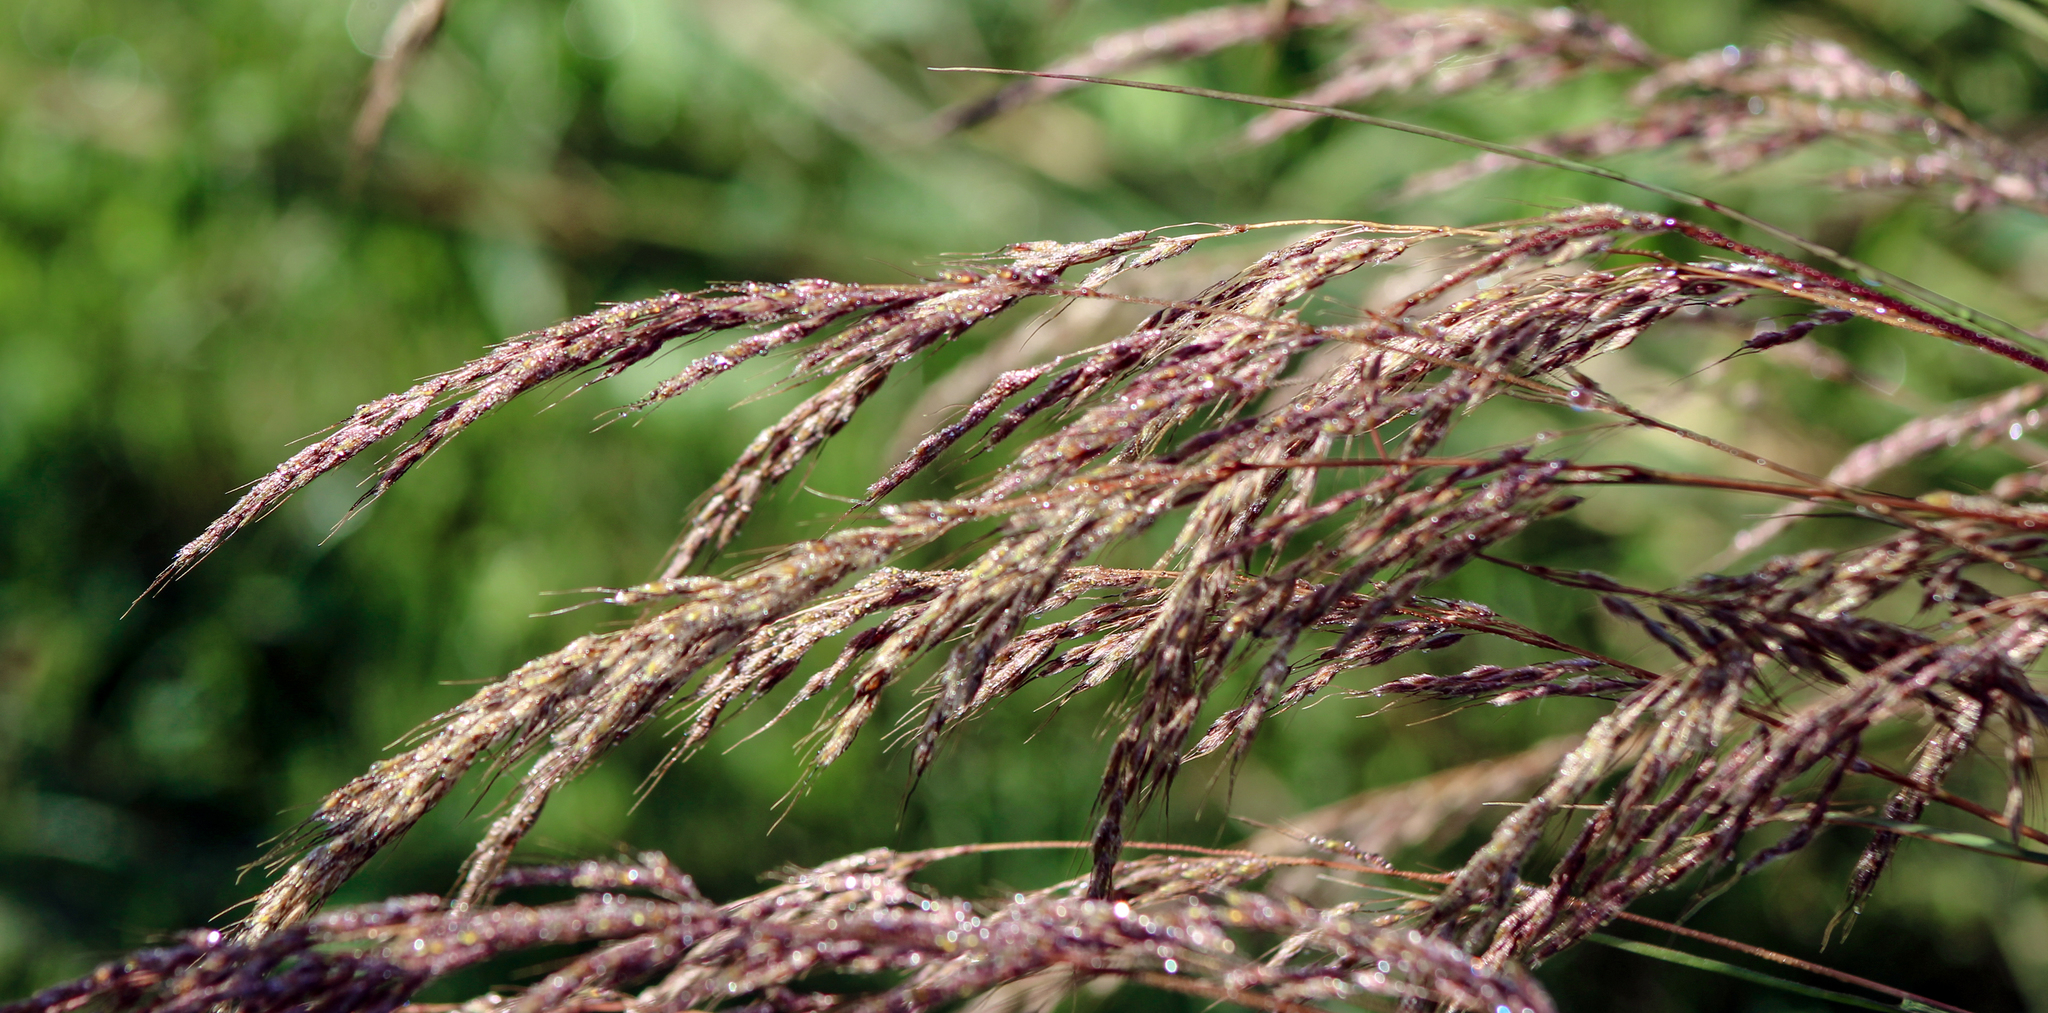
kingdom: Plantae
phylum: Tracheophyta
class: Liliopsida
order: Poales
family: Poaceae
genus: Sorghastrum
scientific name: Sorghastrum nutans
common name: Indian grass
